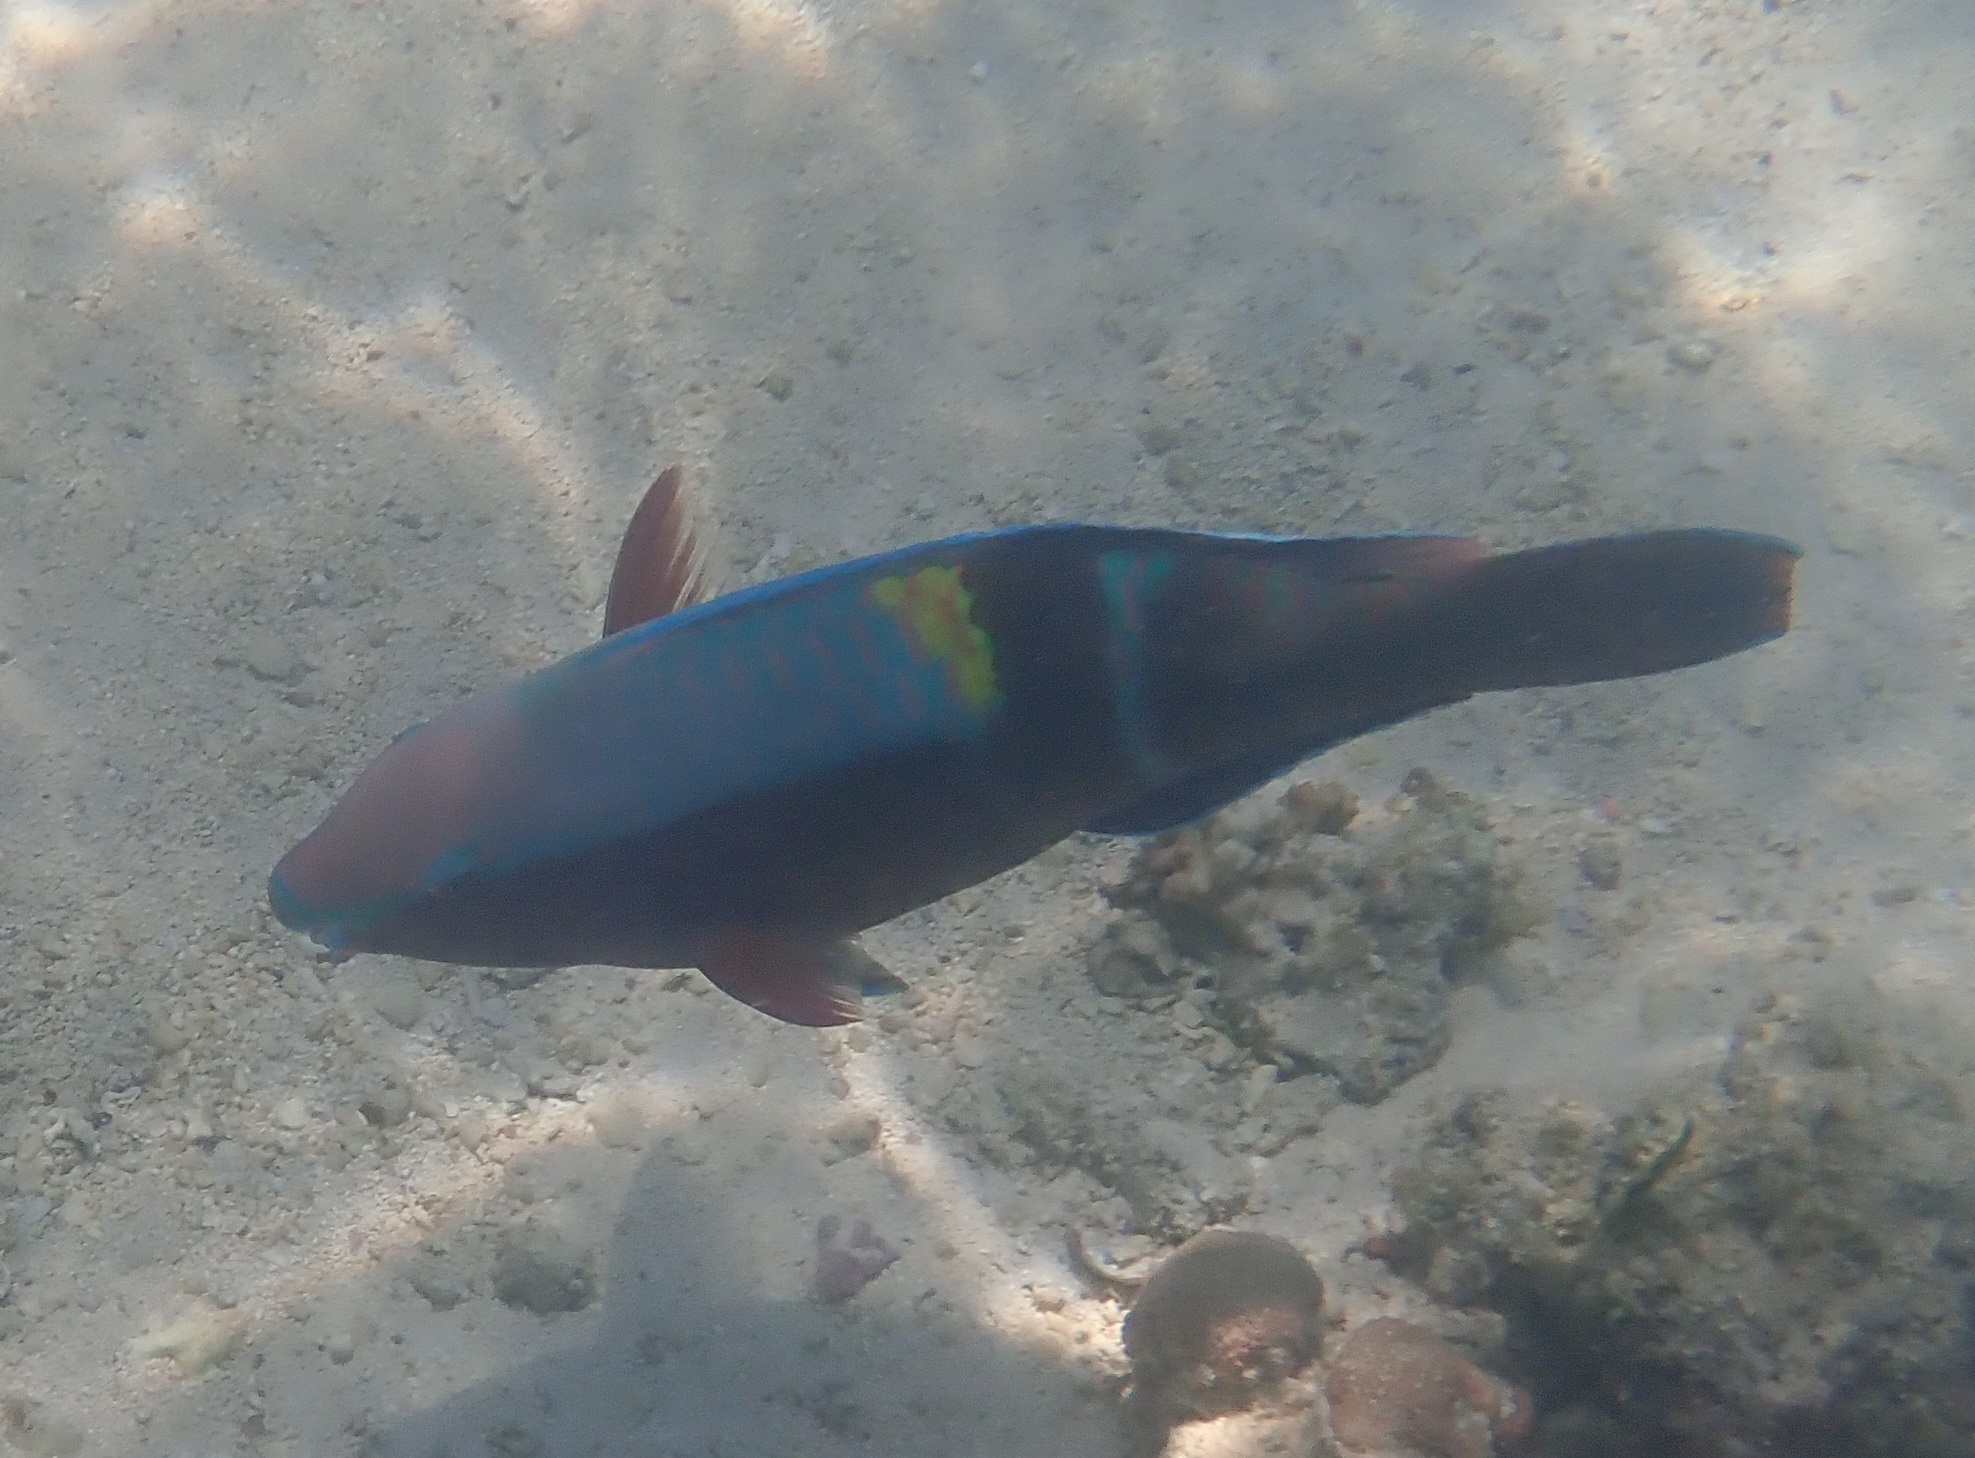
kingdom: Animalia
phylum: Chordata
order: Perciformes
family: Scaridae
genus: Scarus
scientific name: Scarus schlegeli
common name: Schlegel's parrotfish
